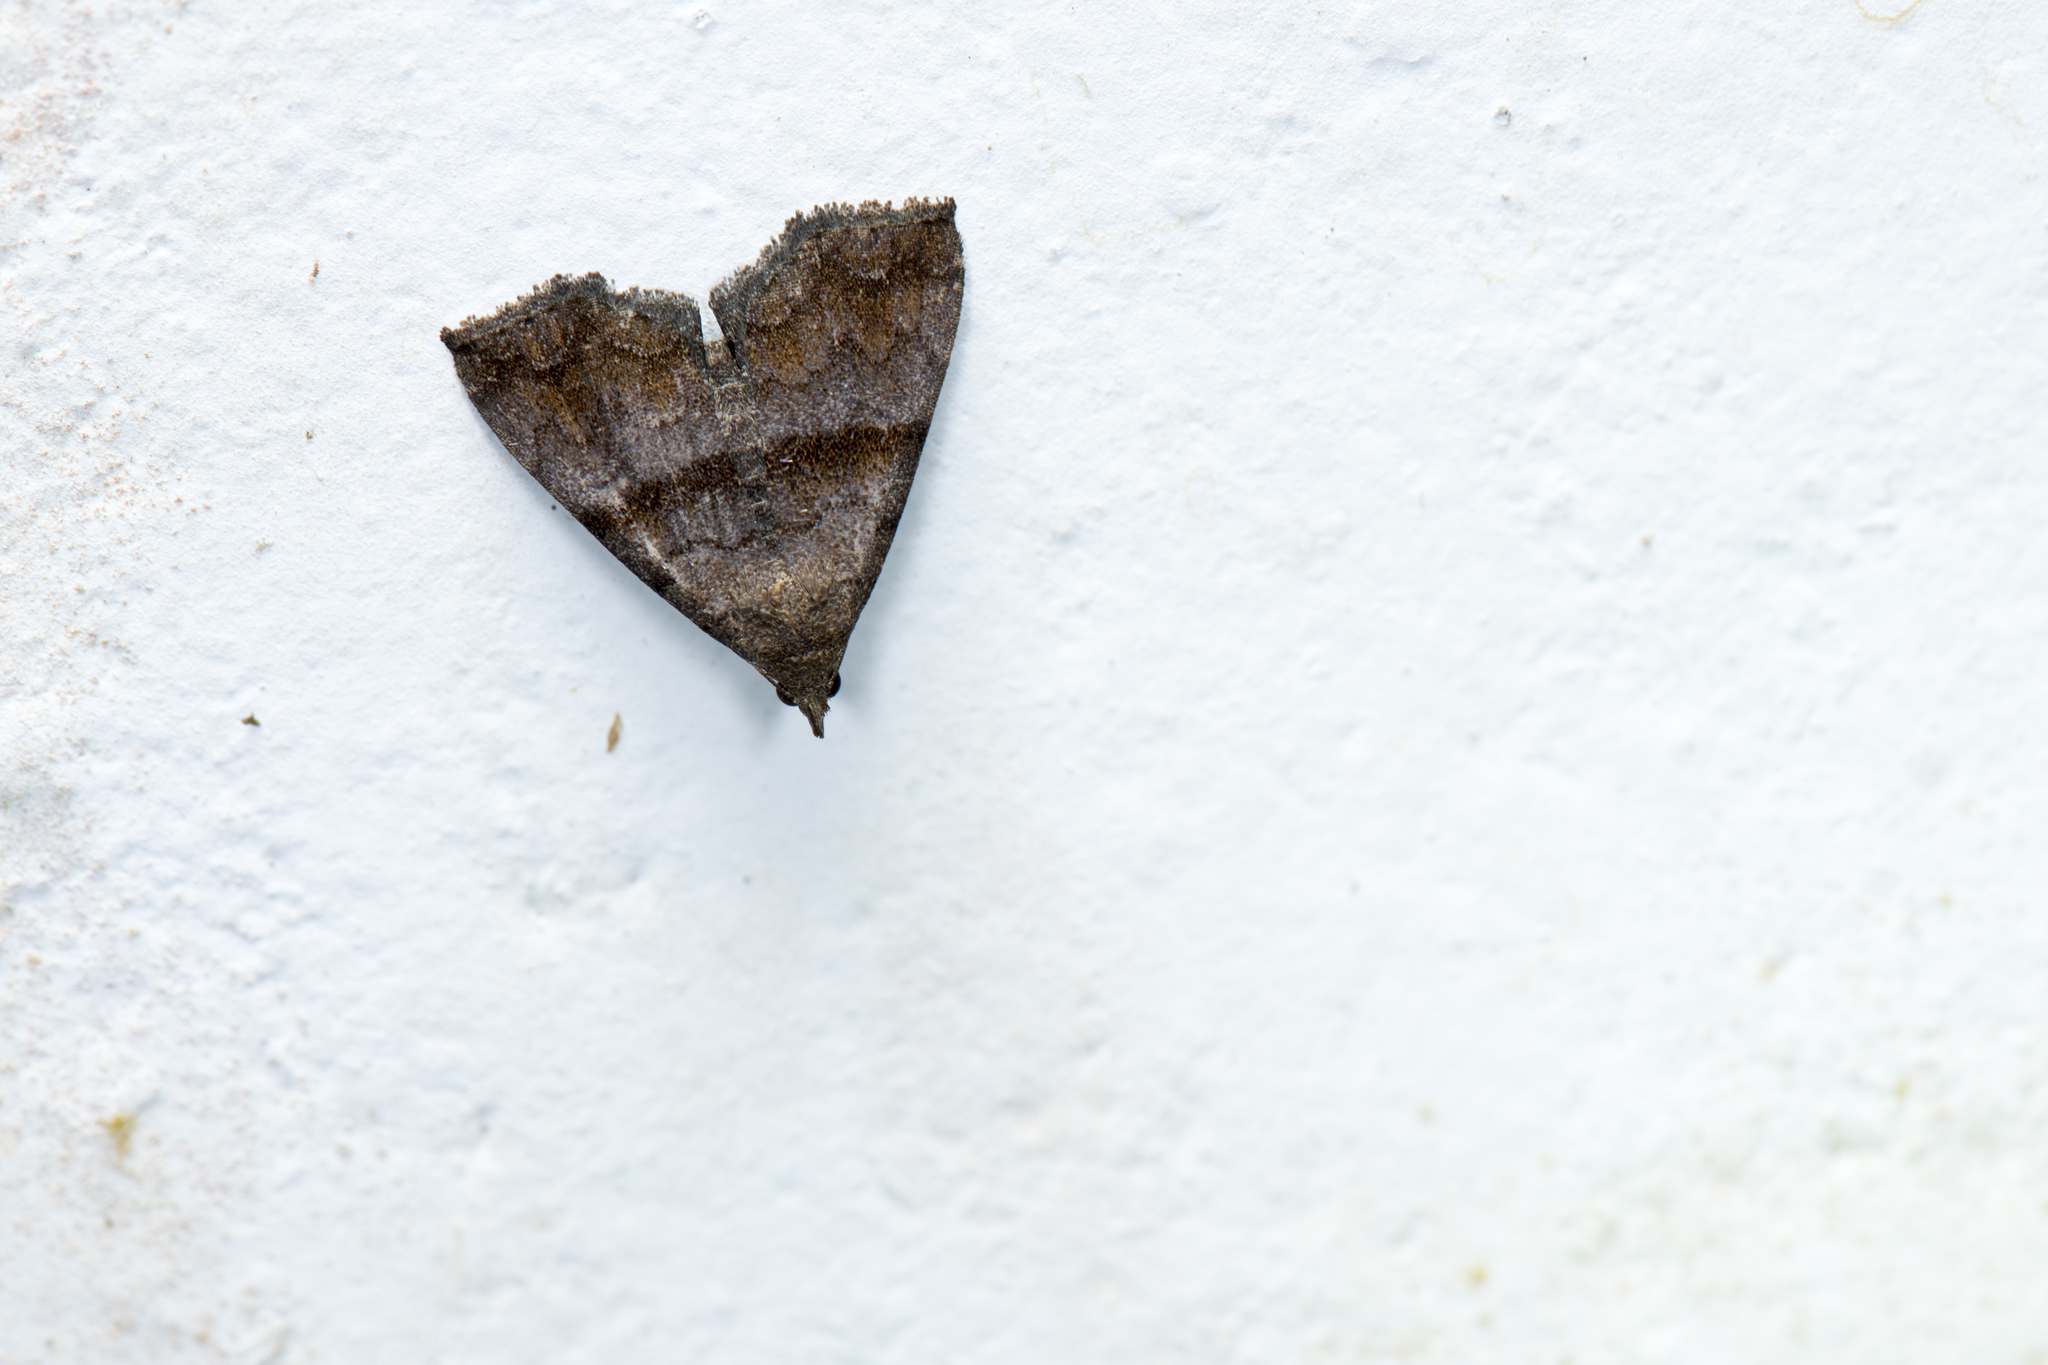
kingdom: Animalia
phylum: Arthropoda
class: Insecta
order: Lepidoptera
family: Erebidae
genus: Polypogon
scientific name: Polypogon Hipoepa fractalis
